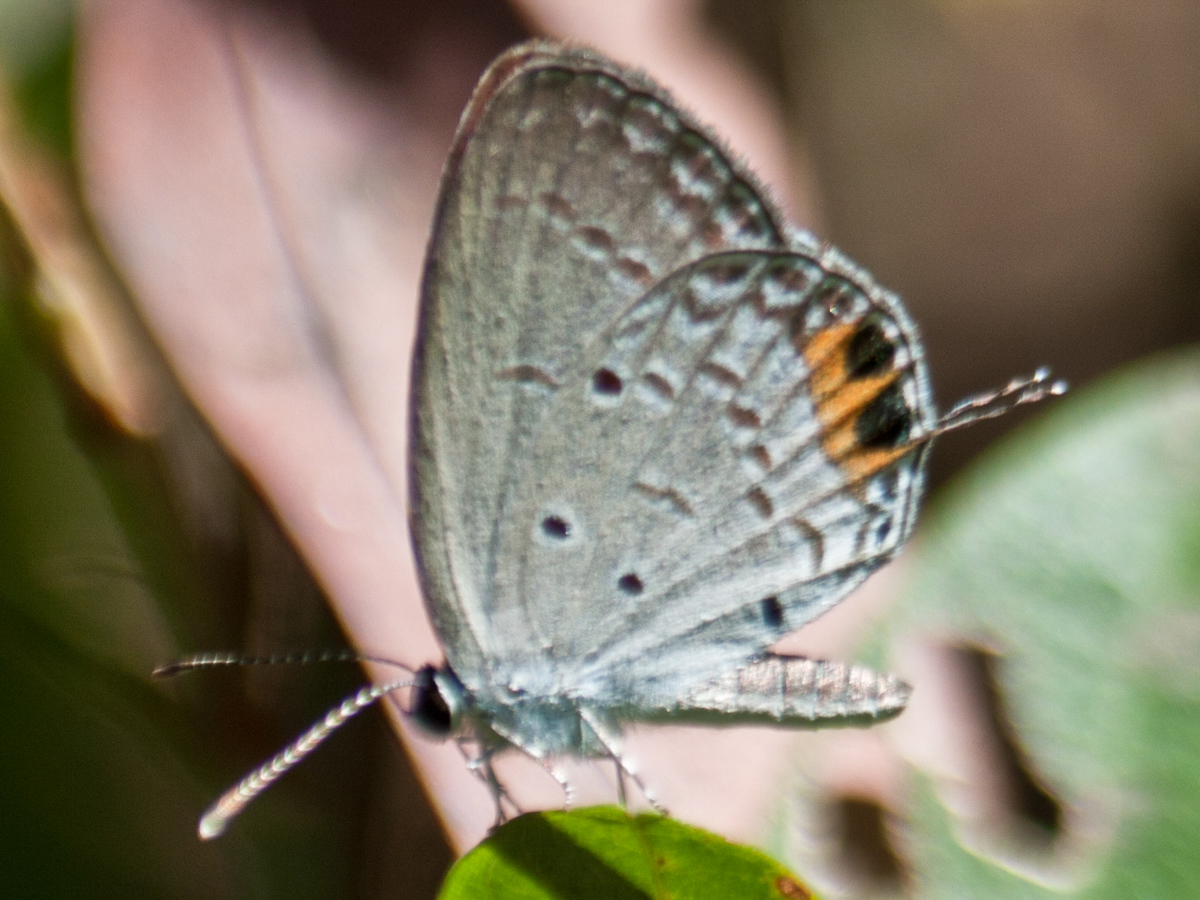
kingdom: Animalia
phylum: Arthropoda
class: Insecta
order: Lepidoptera
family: Lycaenidae
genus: Everes
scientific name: Everes lacturnus
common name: Orange-tipped pea-blue
